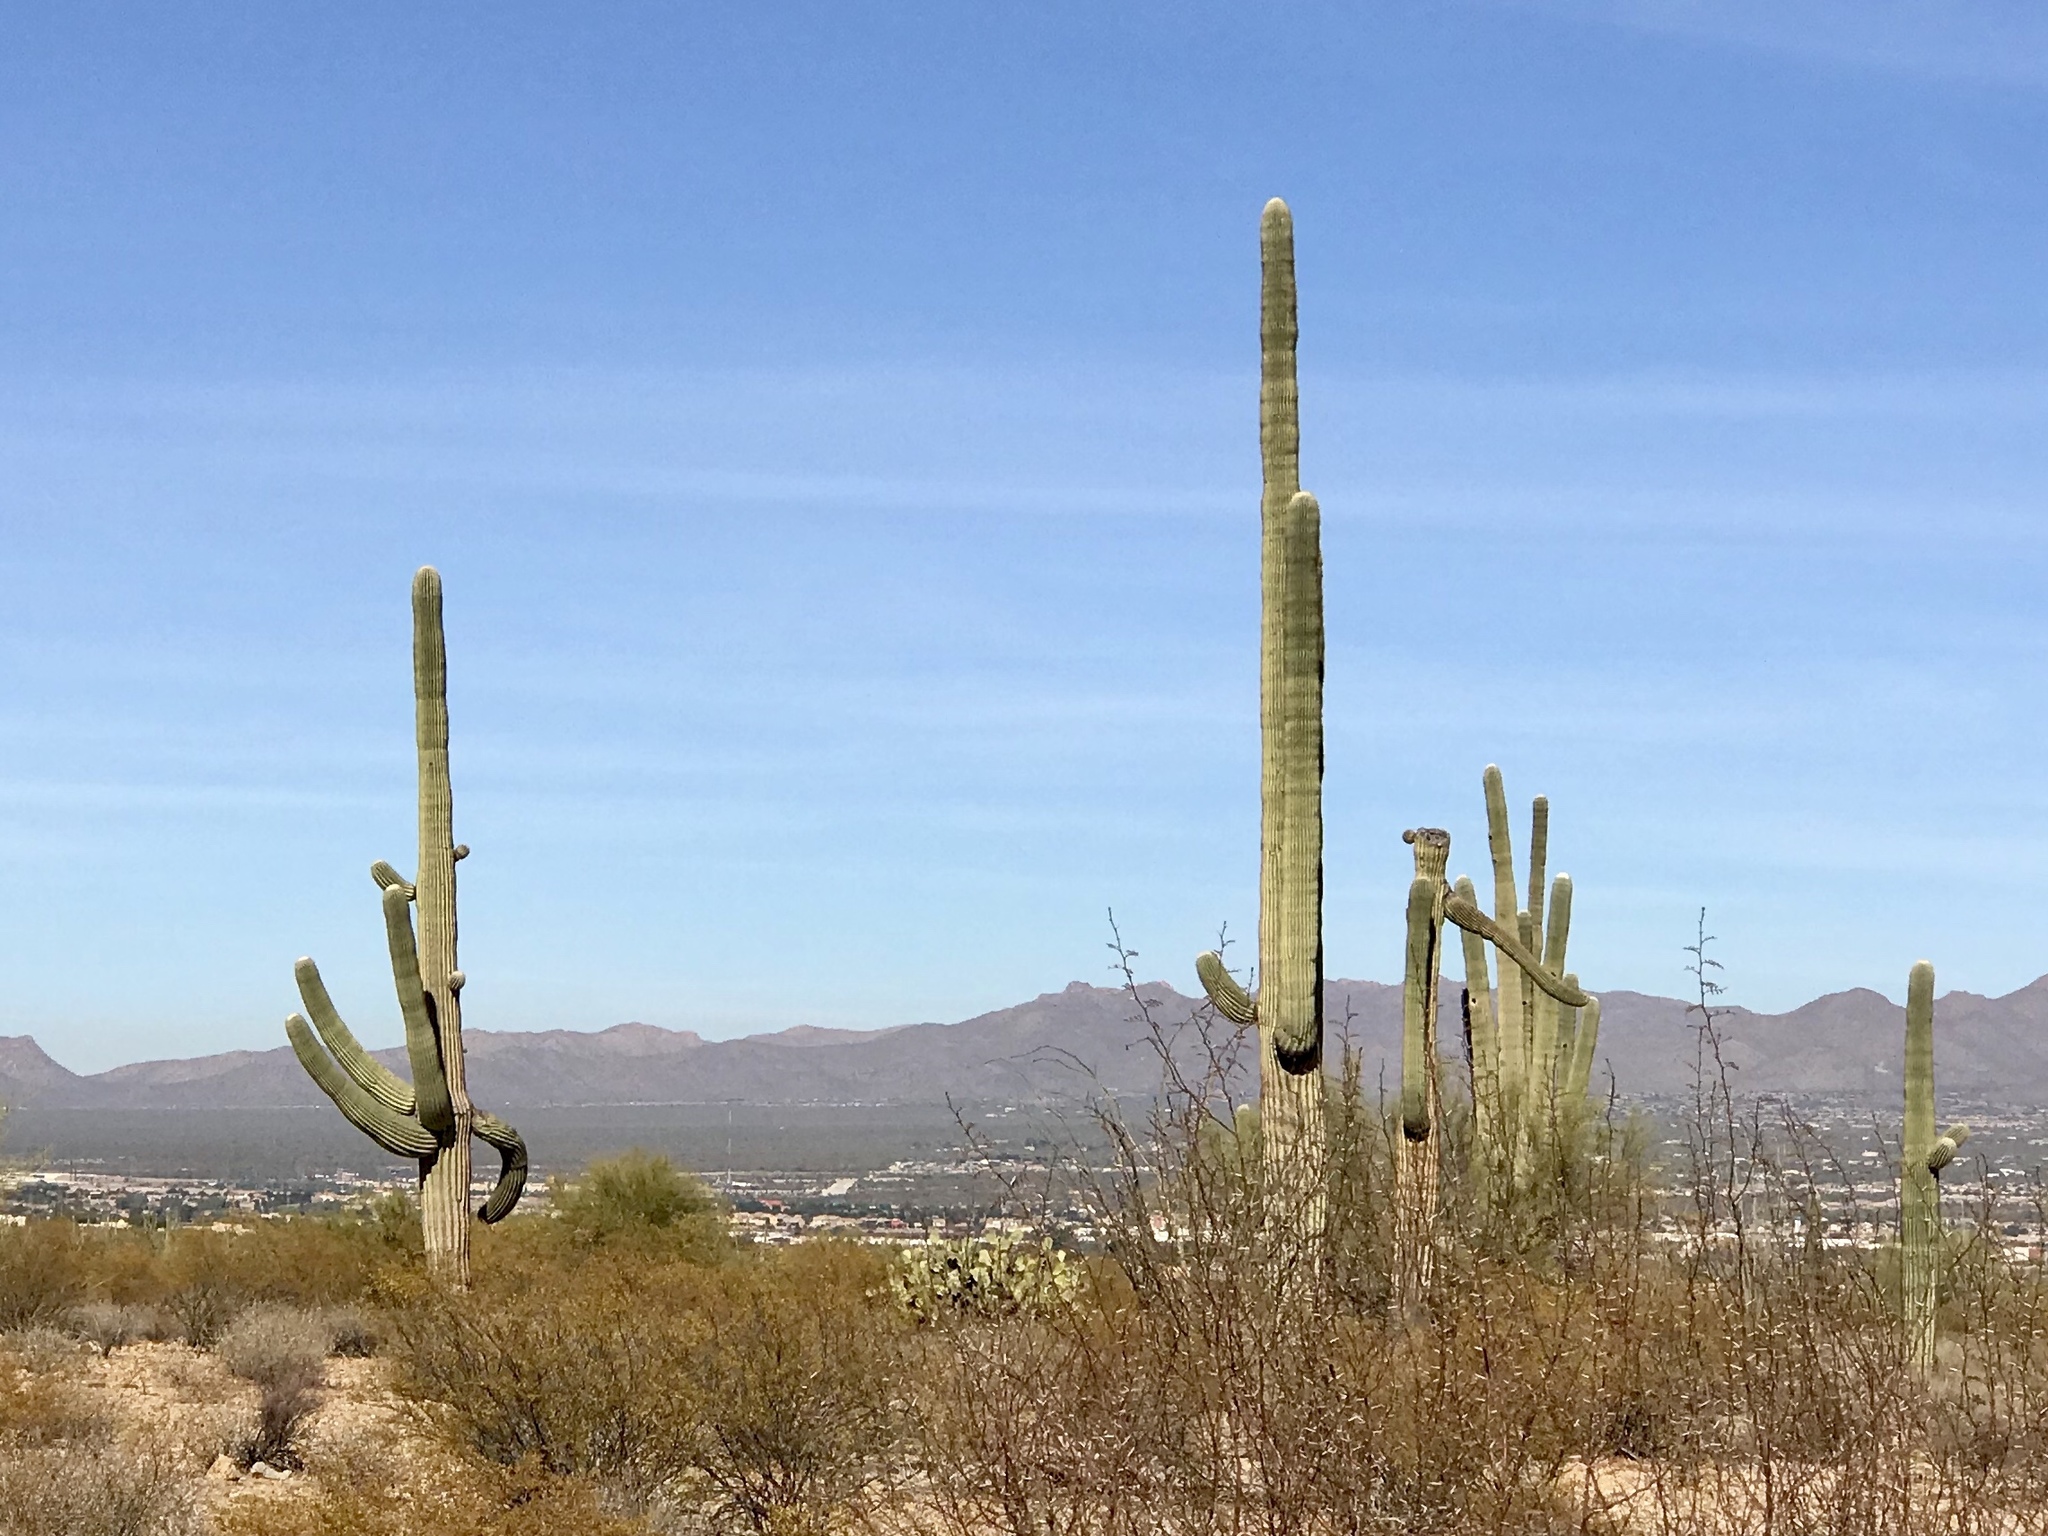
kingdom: Plantae
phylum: Tracheophyta
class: Magnoliopsida
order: Caryophyllales
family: Cactaceae
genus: Carnegiea
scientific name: Carnegiea gigantea
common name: Saguaro
